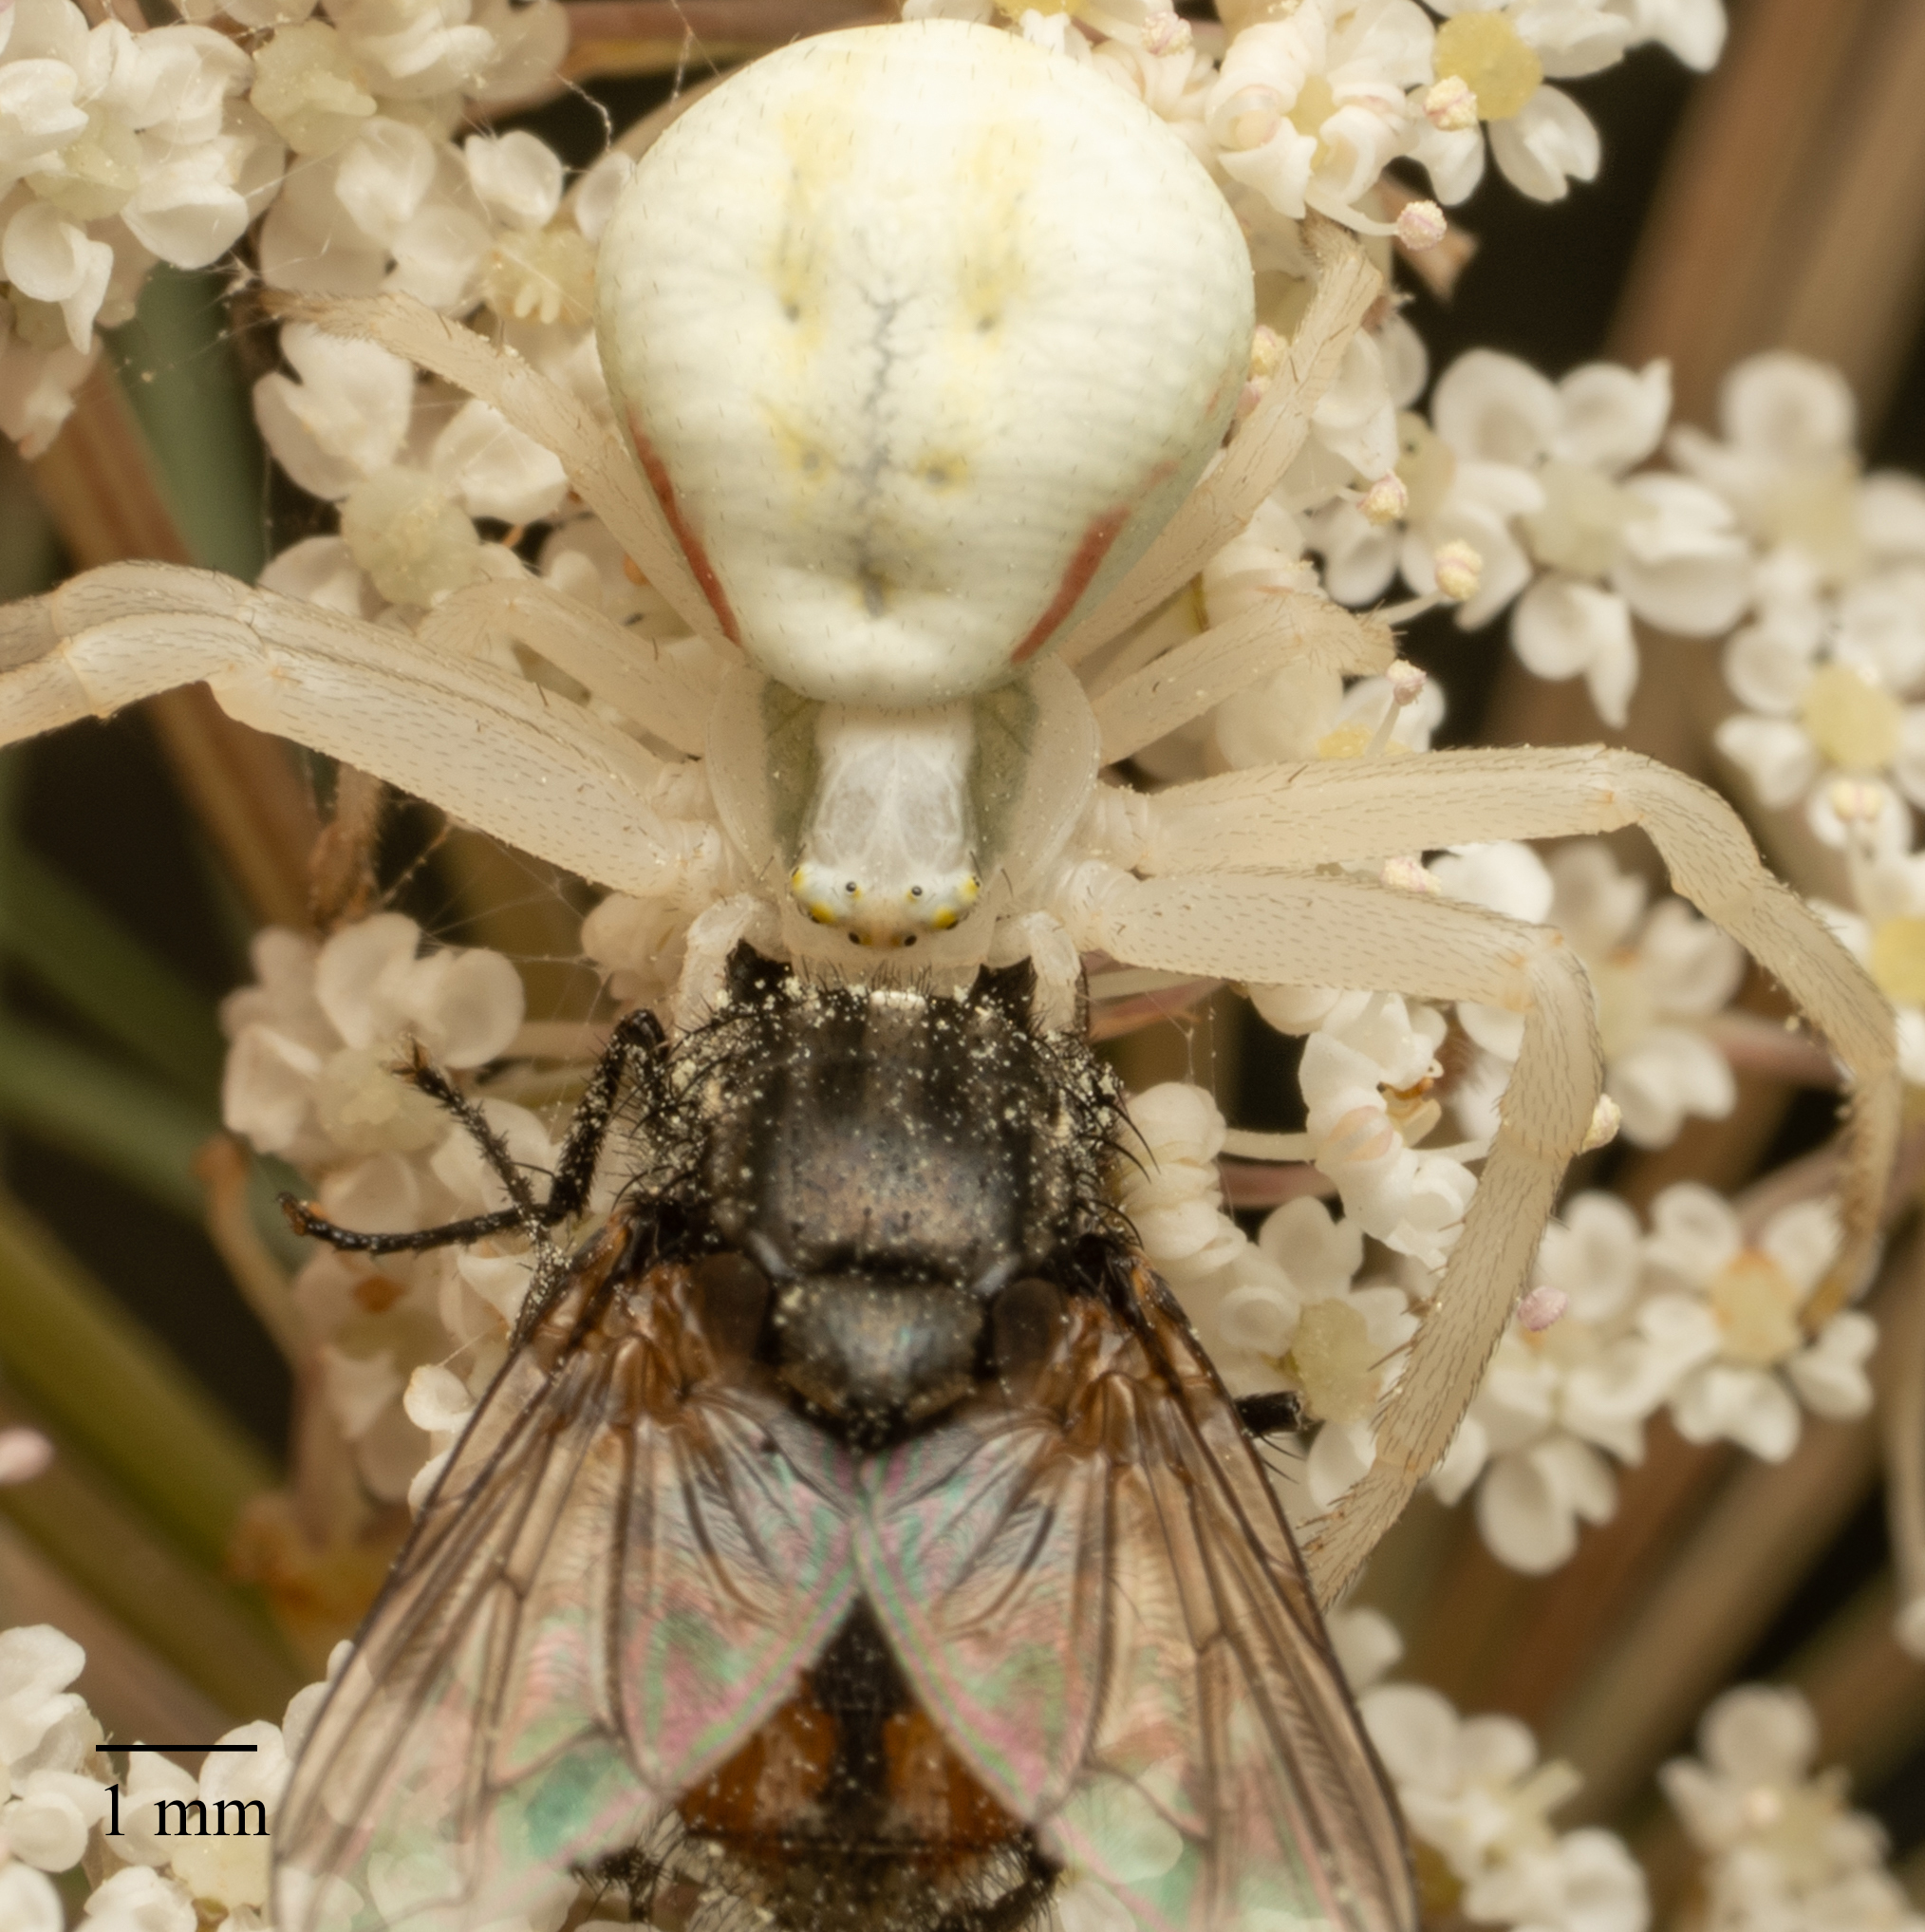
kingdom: Animalia
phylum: Arthropoda
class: Arachnida
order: Araneae
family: Thomisidae
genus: Misumena
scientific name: Misumena vatia
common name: Goldenrod crab spider
